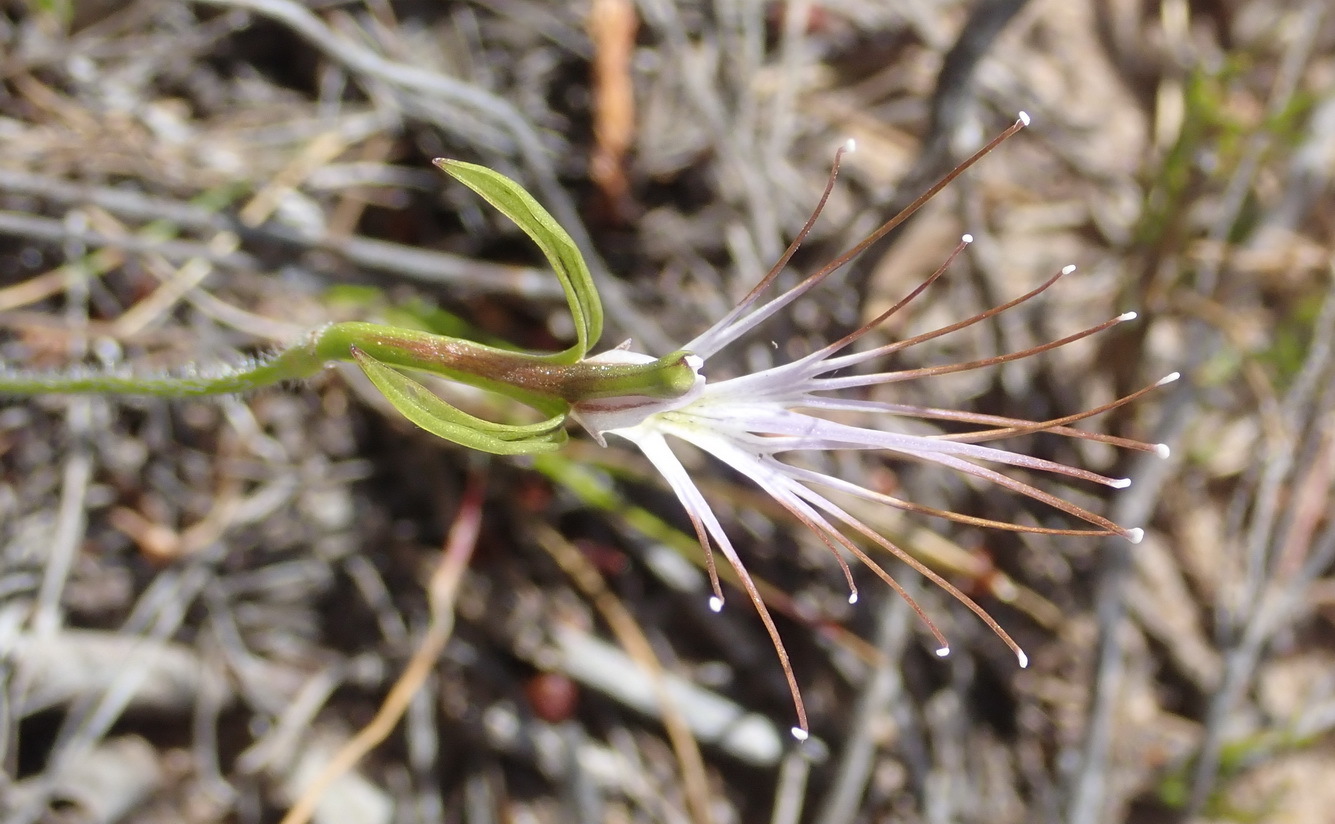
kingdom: Plantae
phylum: Tracheophyta
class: Liliopsida
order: Asparagales
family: Orchidaceae
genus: Holothrix
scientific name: Holothrix etheliae
